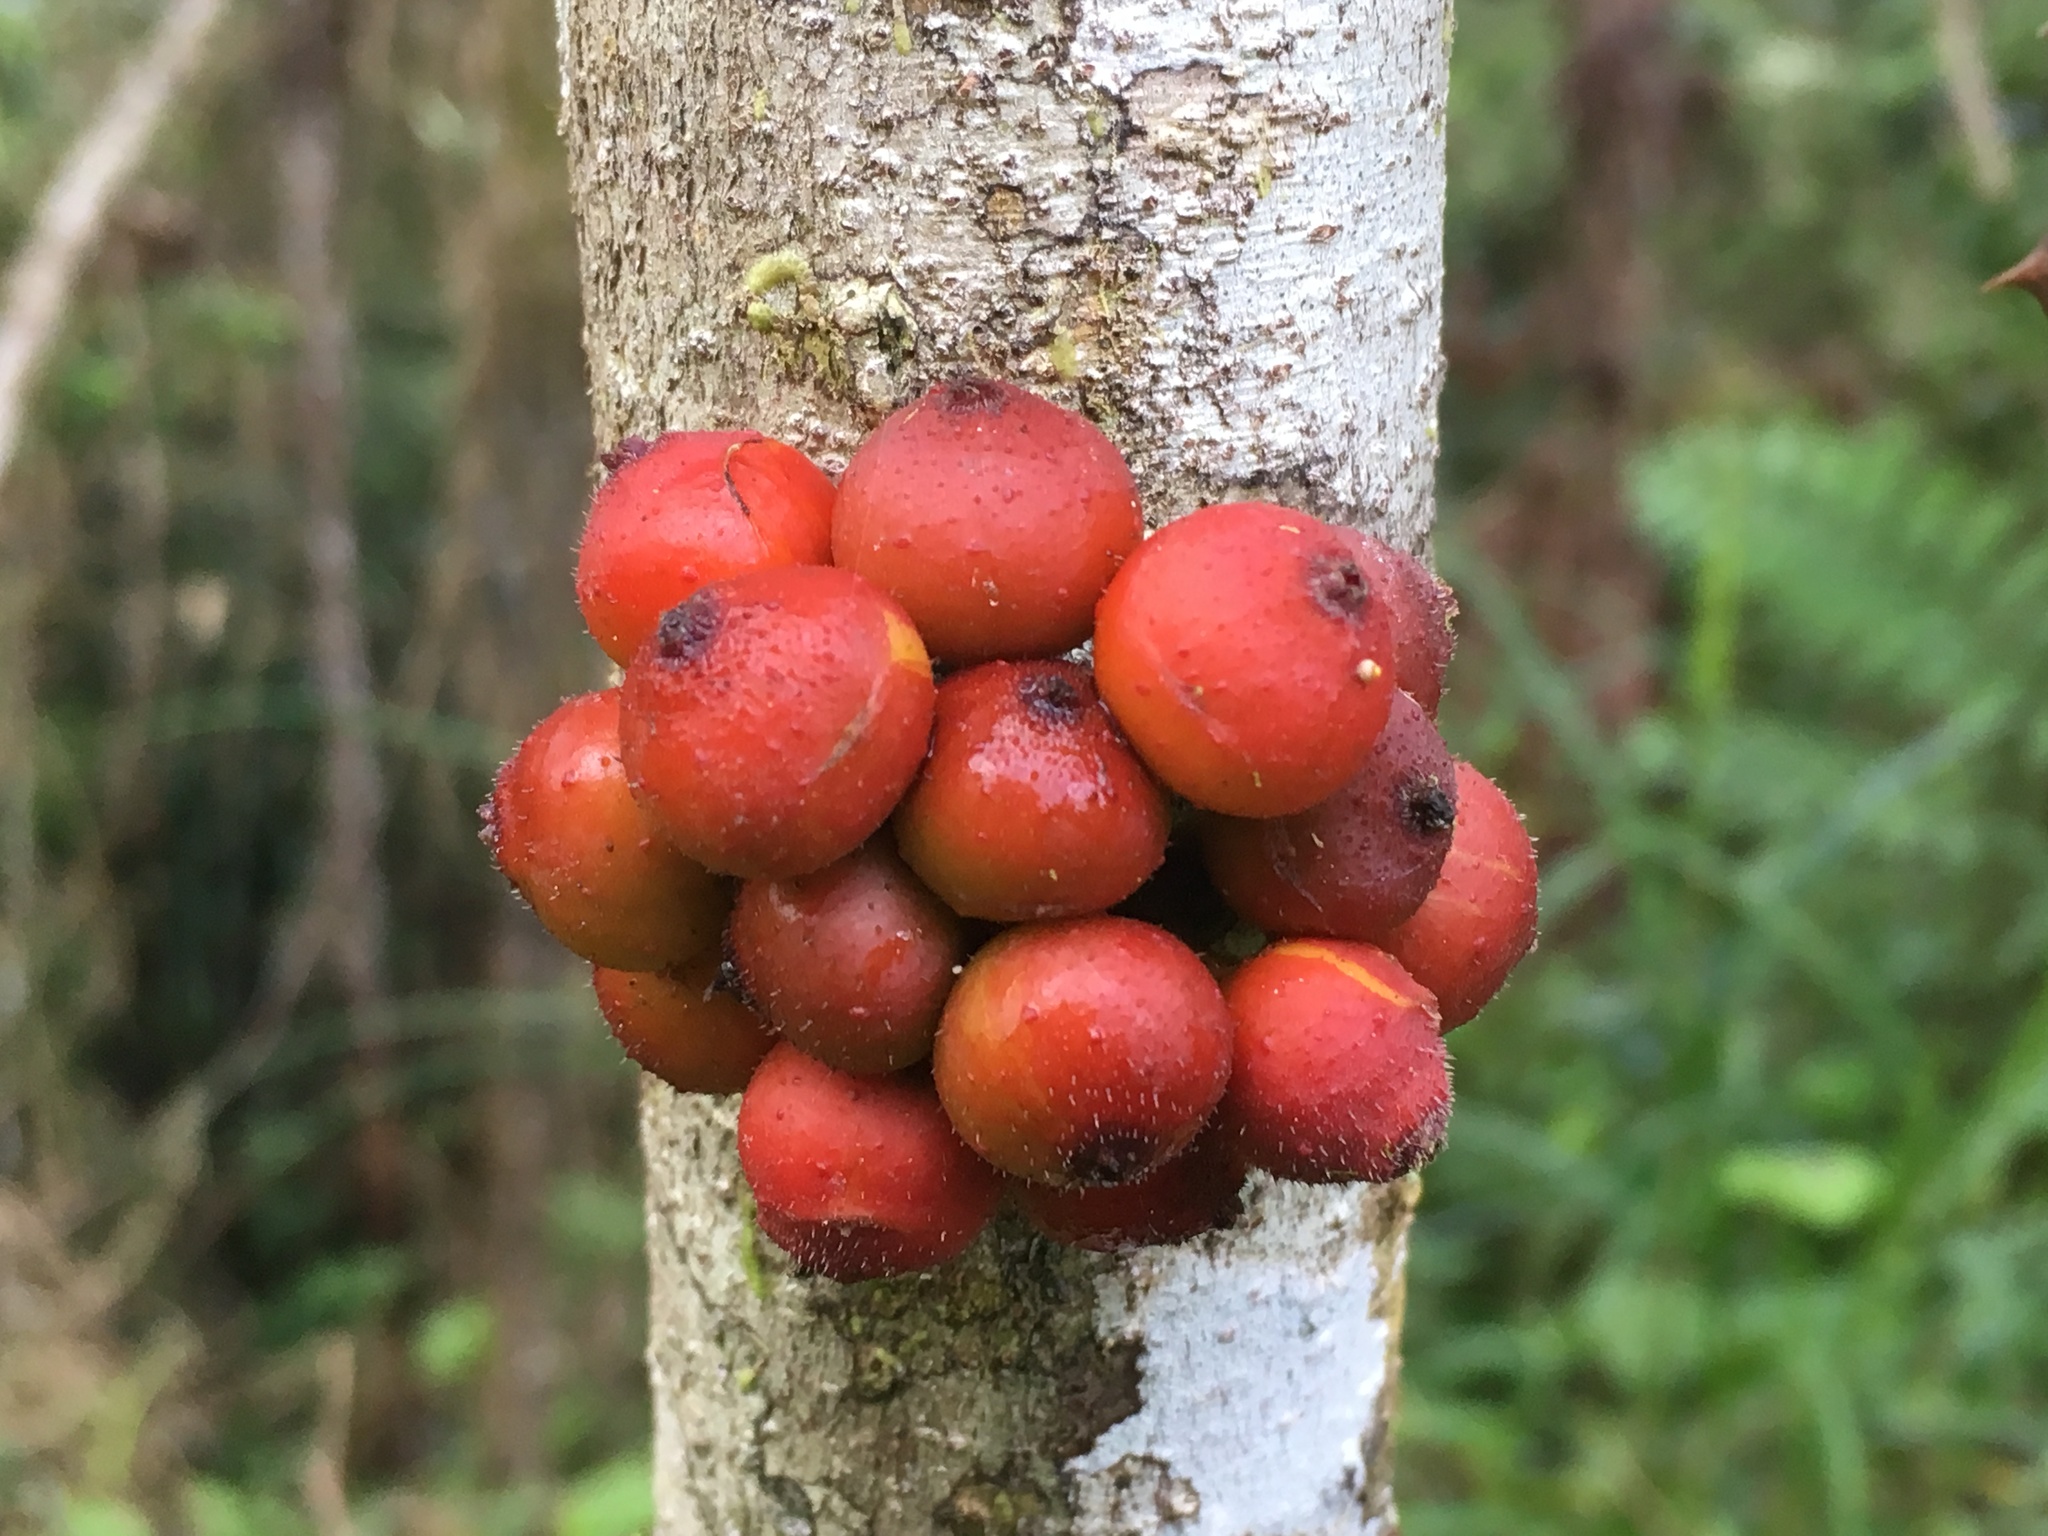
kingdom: Plantae
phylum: Tracheophyta
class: Magnoliopsida
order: Rosales
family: Moraceae
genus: Ficus
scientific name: Ficus politoria
